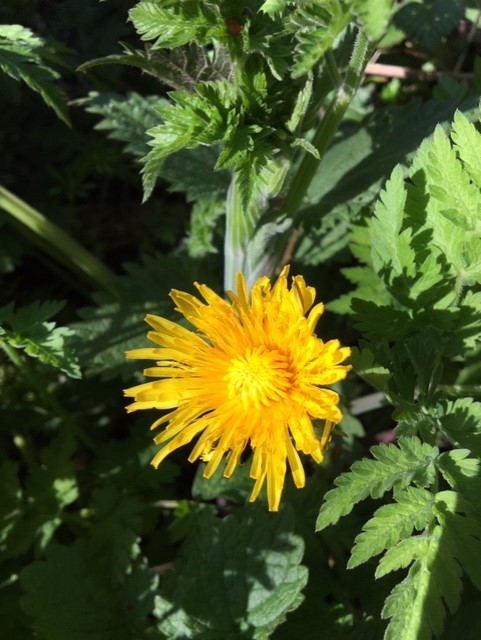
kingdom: Plantae
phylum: Tracheophyta
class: Magnoliopsida
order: Asterales
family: Asteraceae
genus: Taraxacum
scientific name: Taraxacum officinale
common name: Common dandelion
